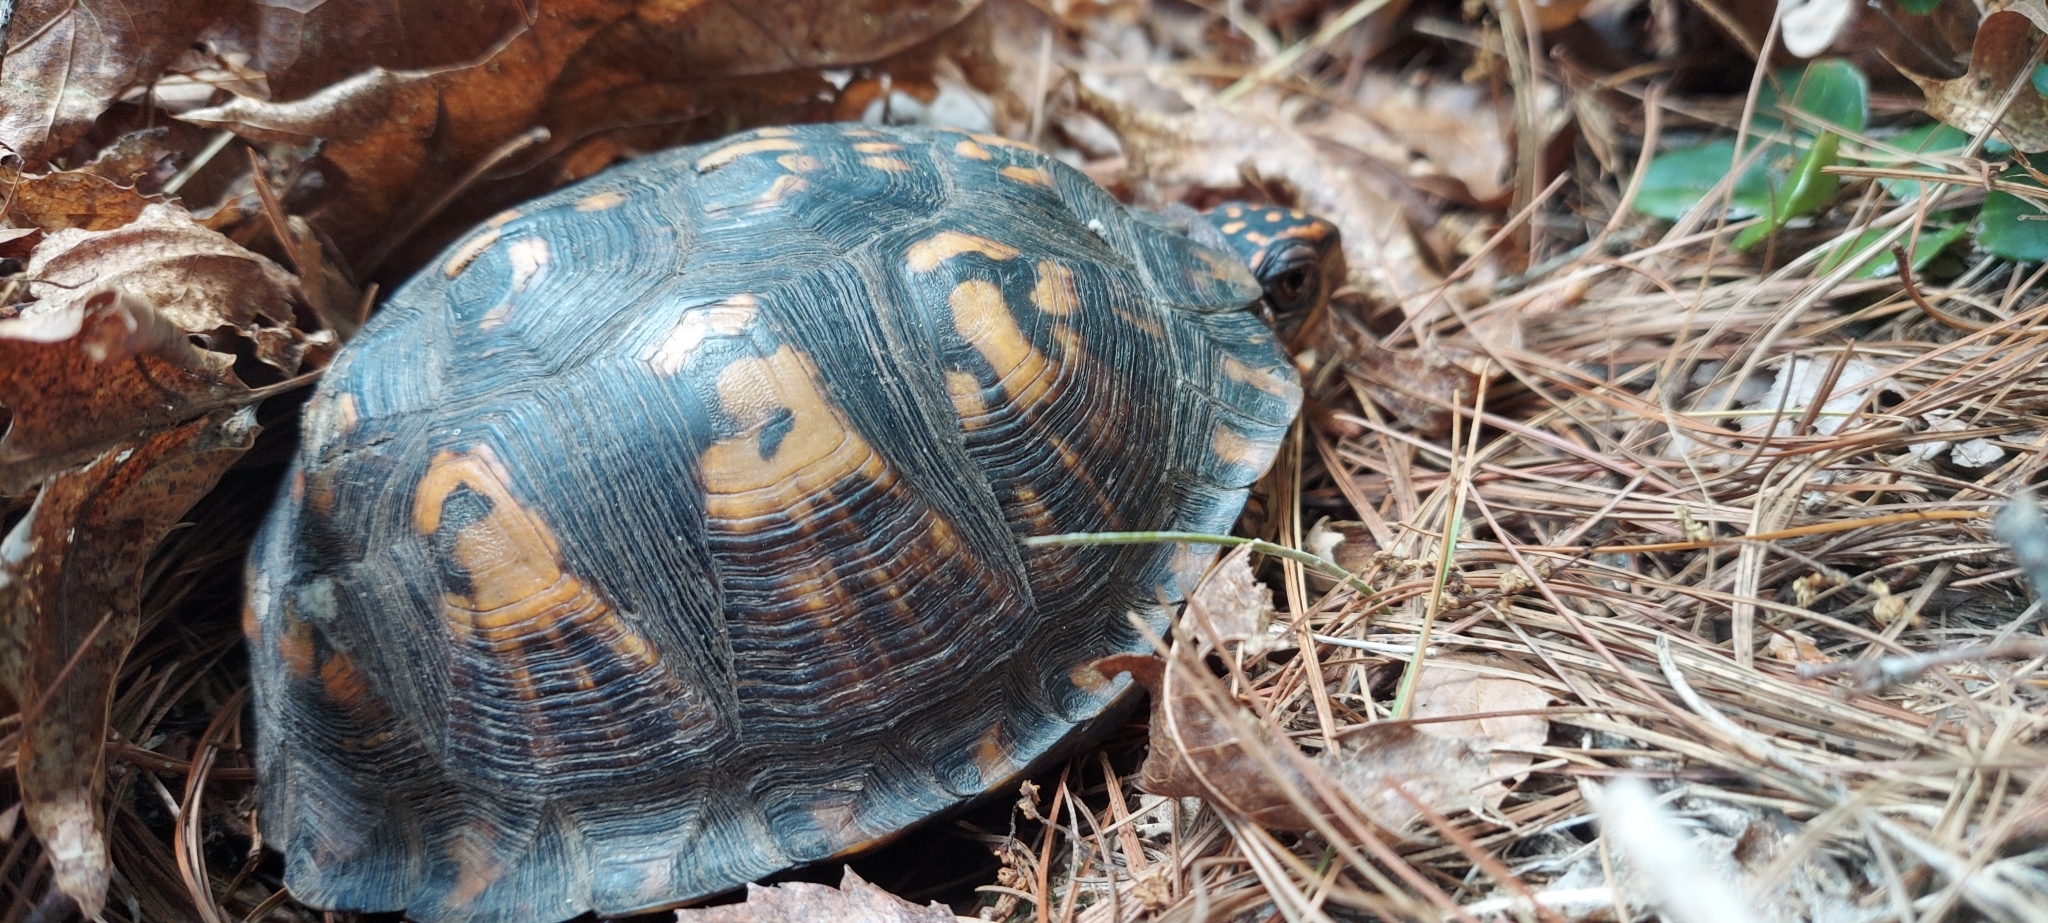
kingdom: Animalia
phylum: Chordata
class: Testudines
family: Emydidae
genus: Terrapene
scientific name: Terrapene carolina
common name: Common box turtle
